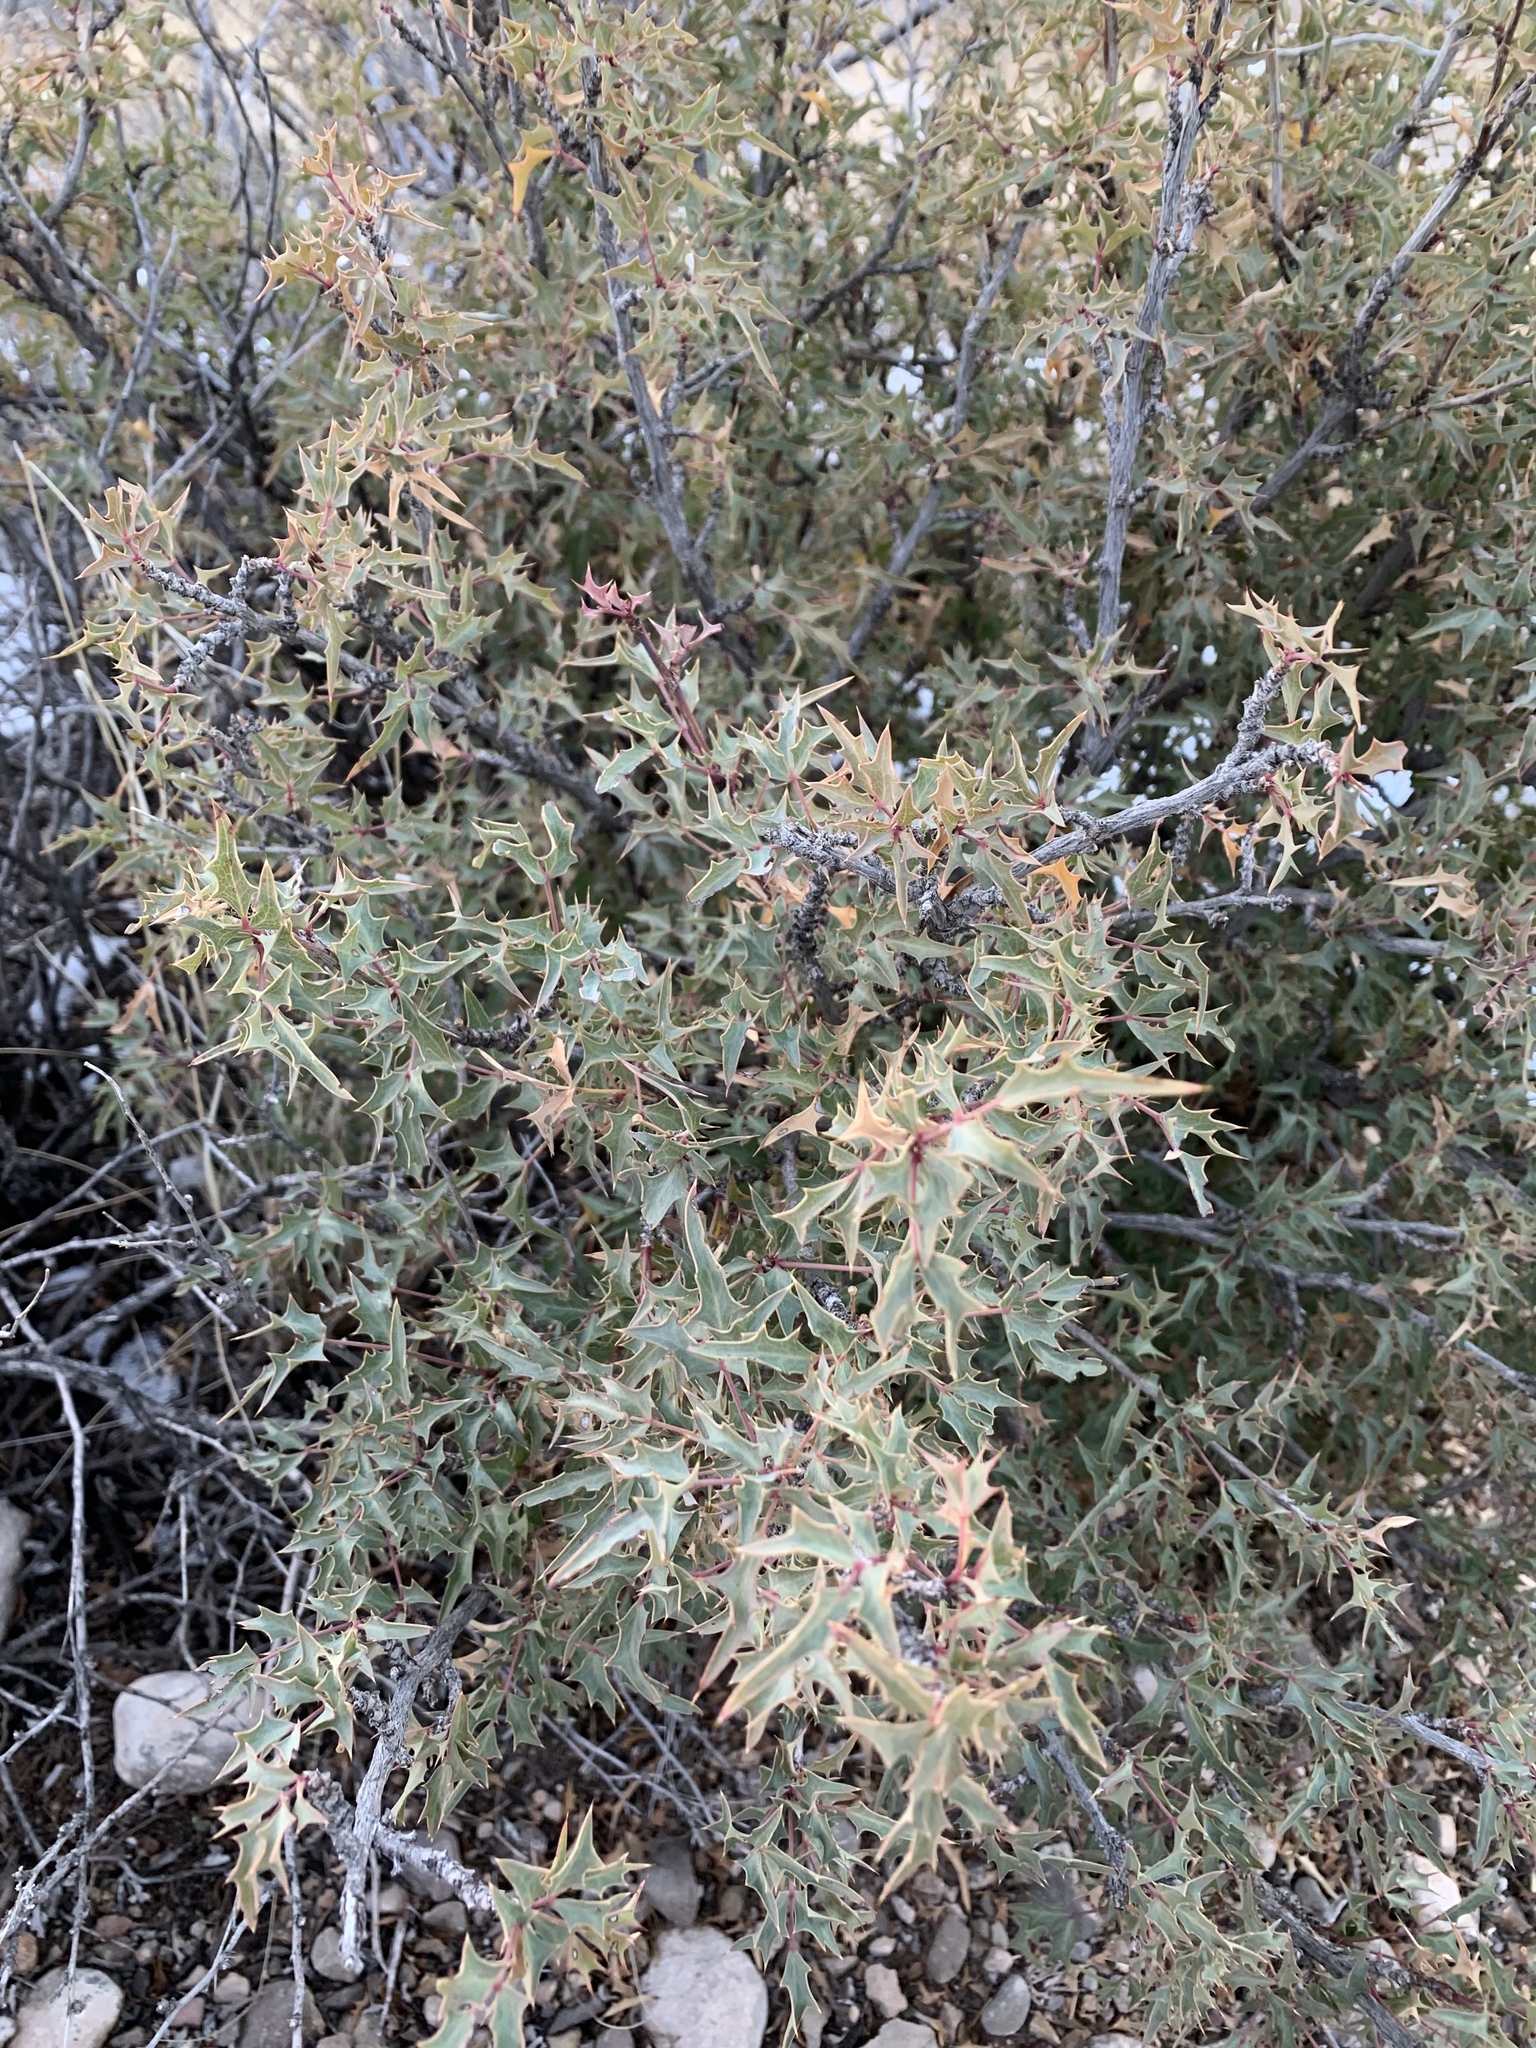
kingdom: Plantae
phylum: Tracheophyta
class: Magnoliopsida
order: Ranunculales
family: Berberidaceae
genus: Alloberberis
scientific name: Alloberberis haematocarpa
